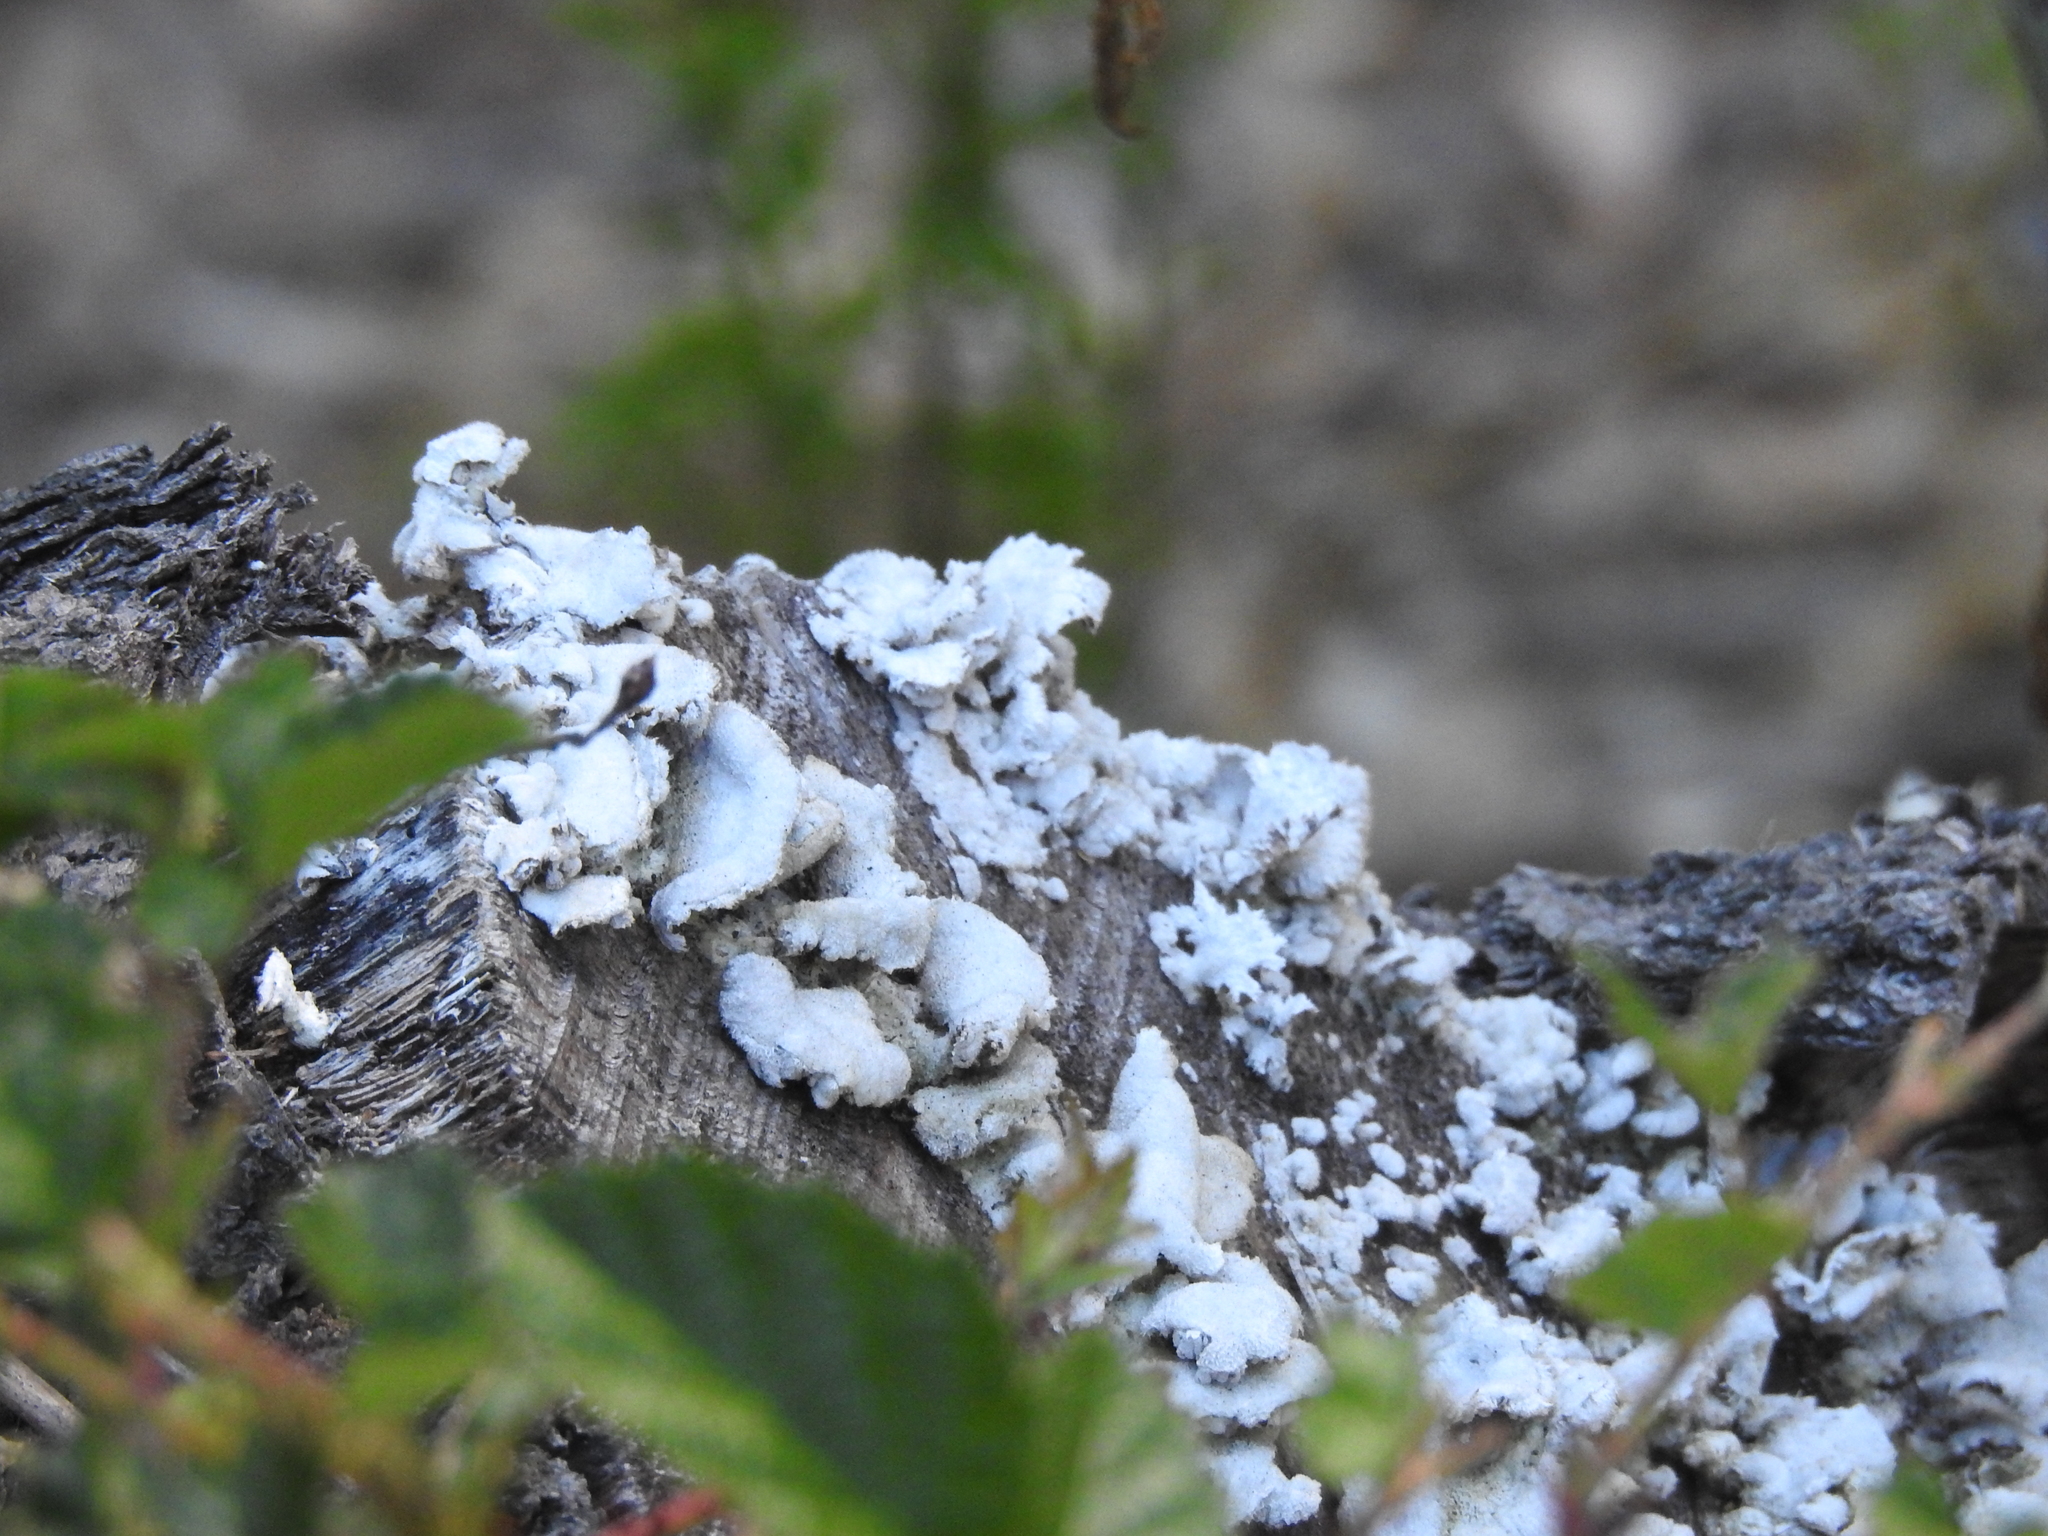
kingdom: Fungi
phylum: Basidiomycota
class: Agaricomycetes
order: Agaricales
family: Schizophyllaceae
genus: Schizophyllum
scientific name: Schizophyllum commune
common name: Common porecrust
